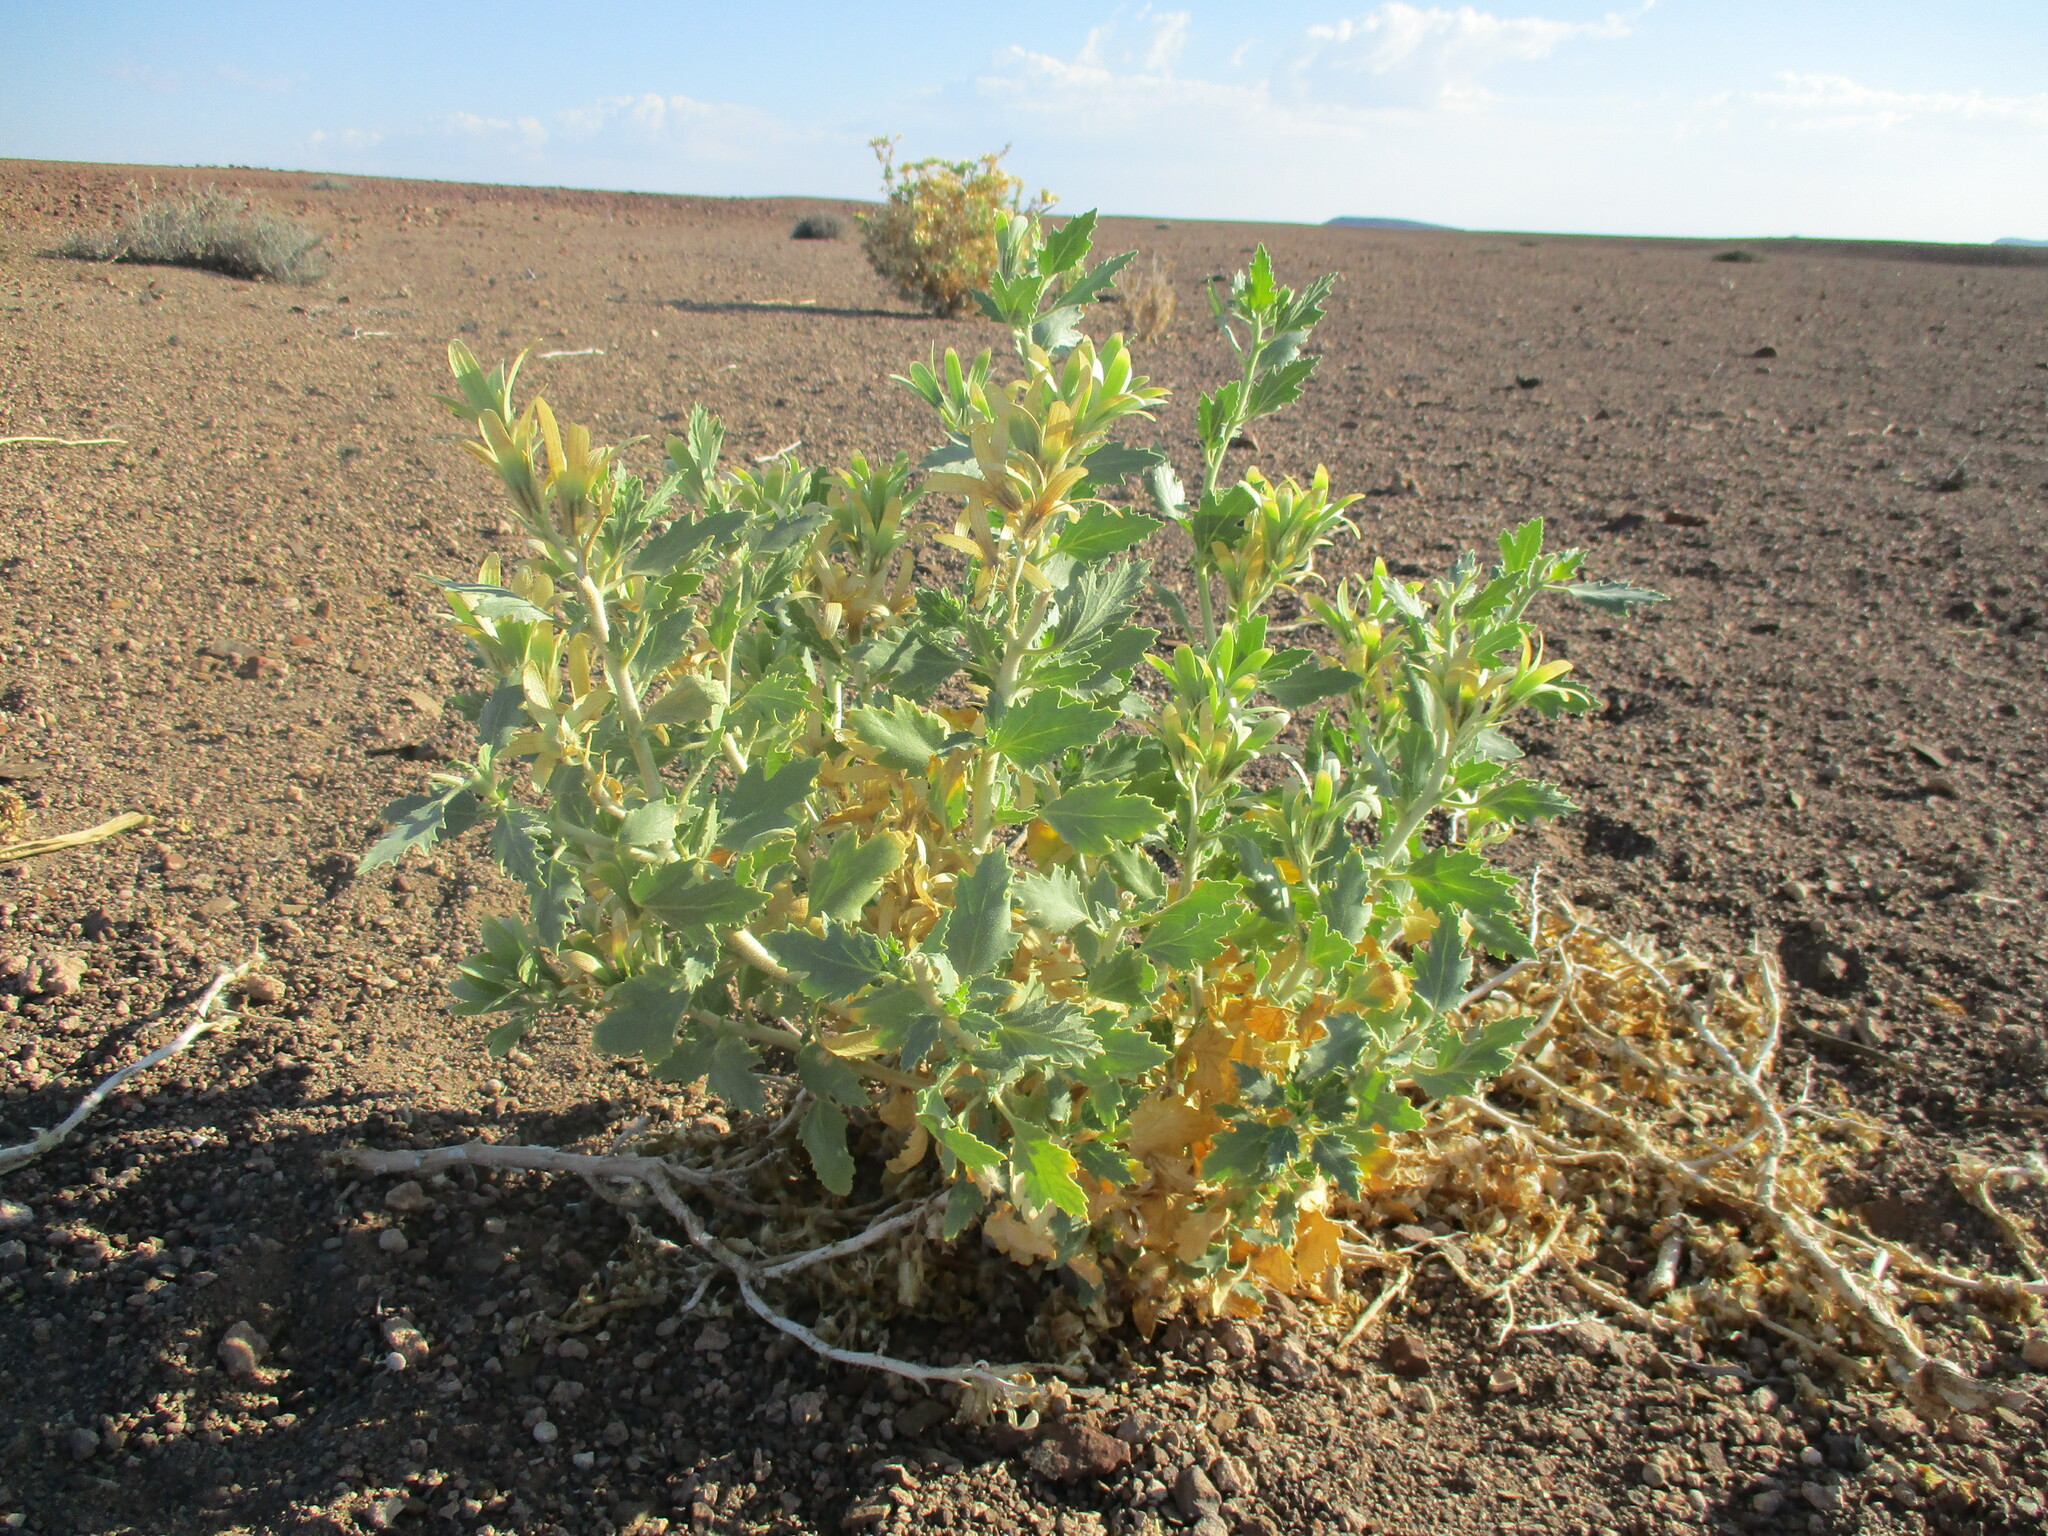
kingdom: Plantae
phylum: Tracheophyta
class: Magnoliopsida
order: Cornales
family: Loasaceae
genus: Kissenia
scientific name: Kissenia capensis
